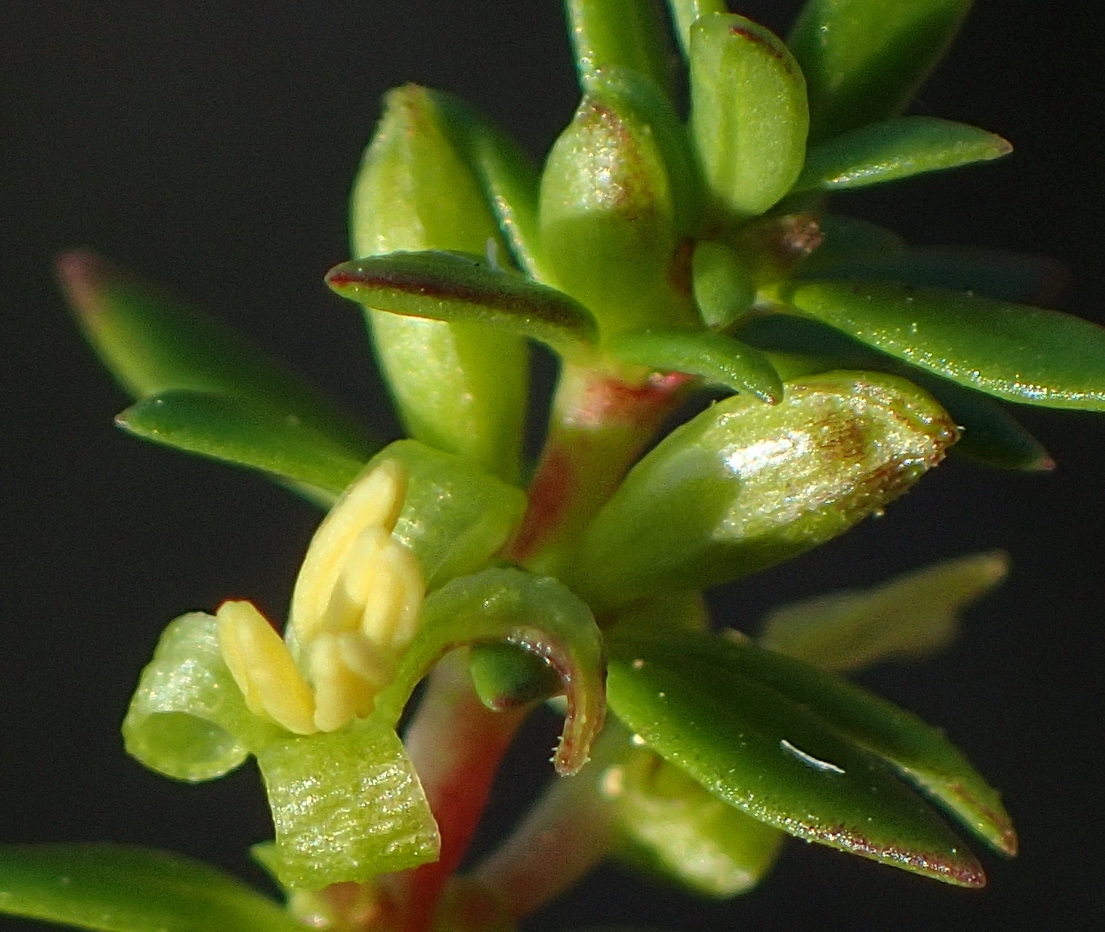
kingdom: Plantae
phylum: Tracheophyta
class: Magnoliopsida
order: Gentianales
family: Rubiaceae
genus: Anthospermum
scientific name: Anthospermum spathulatum
